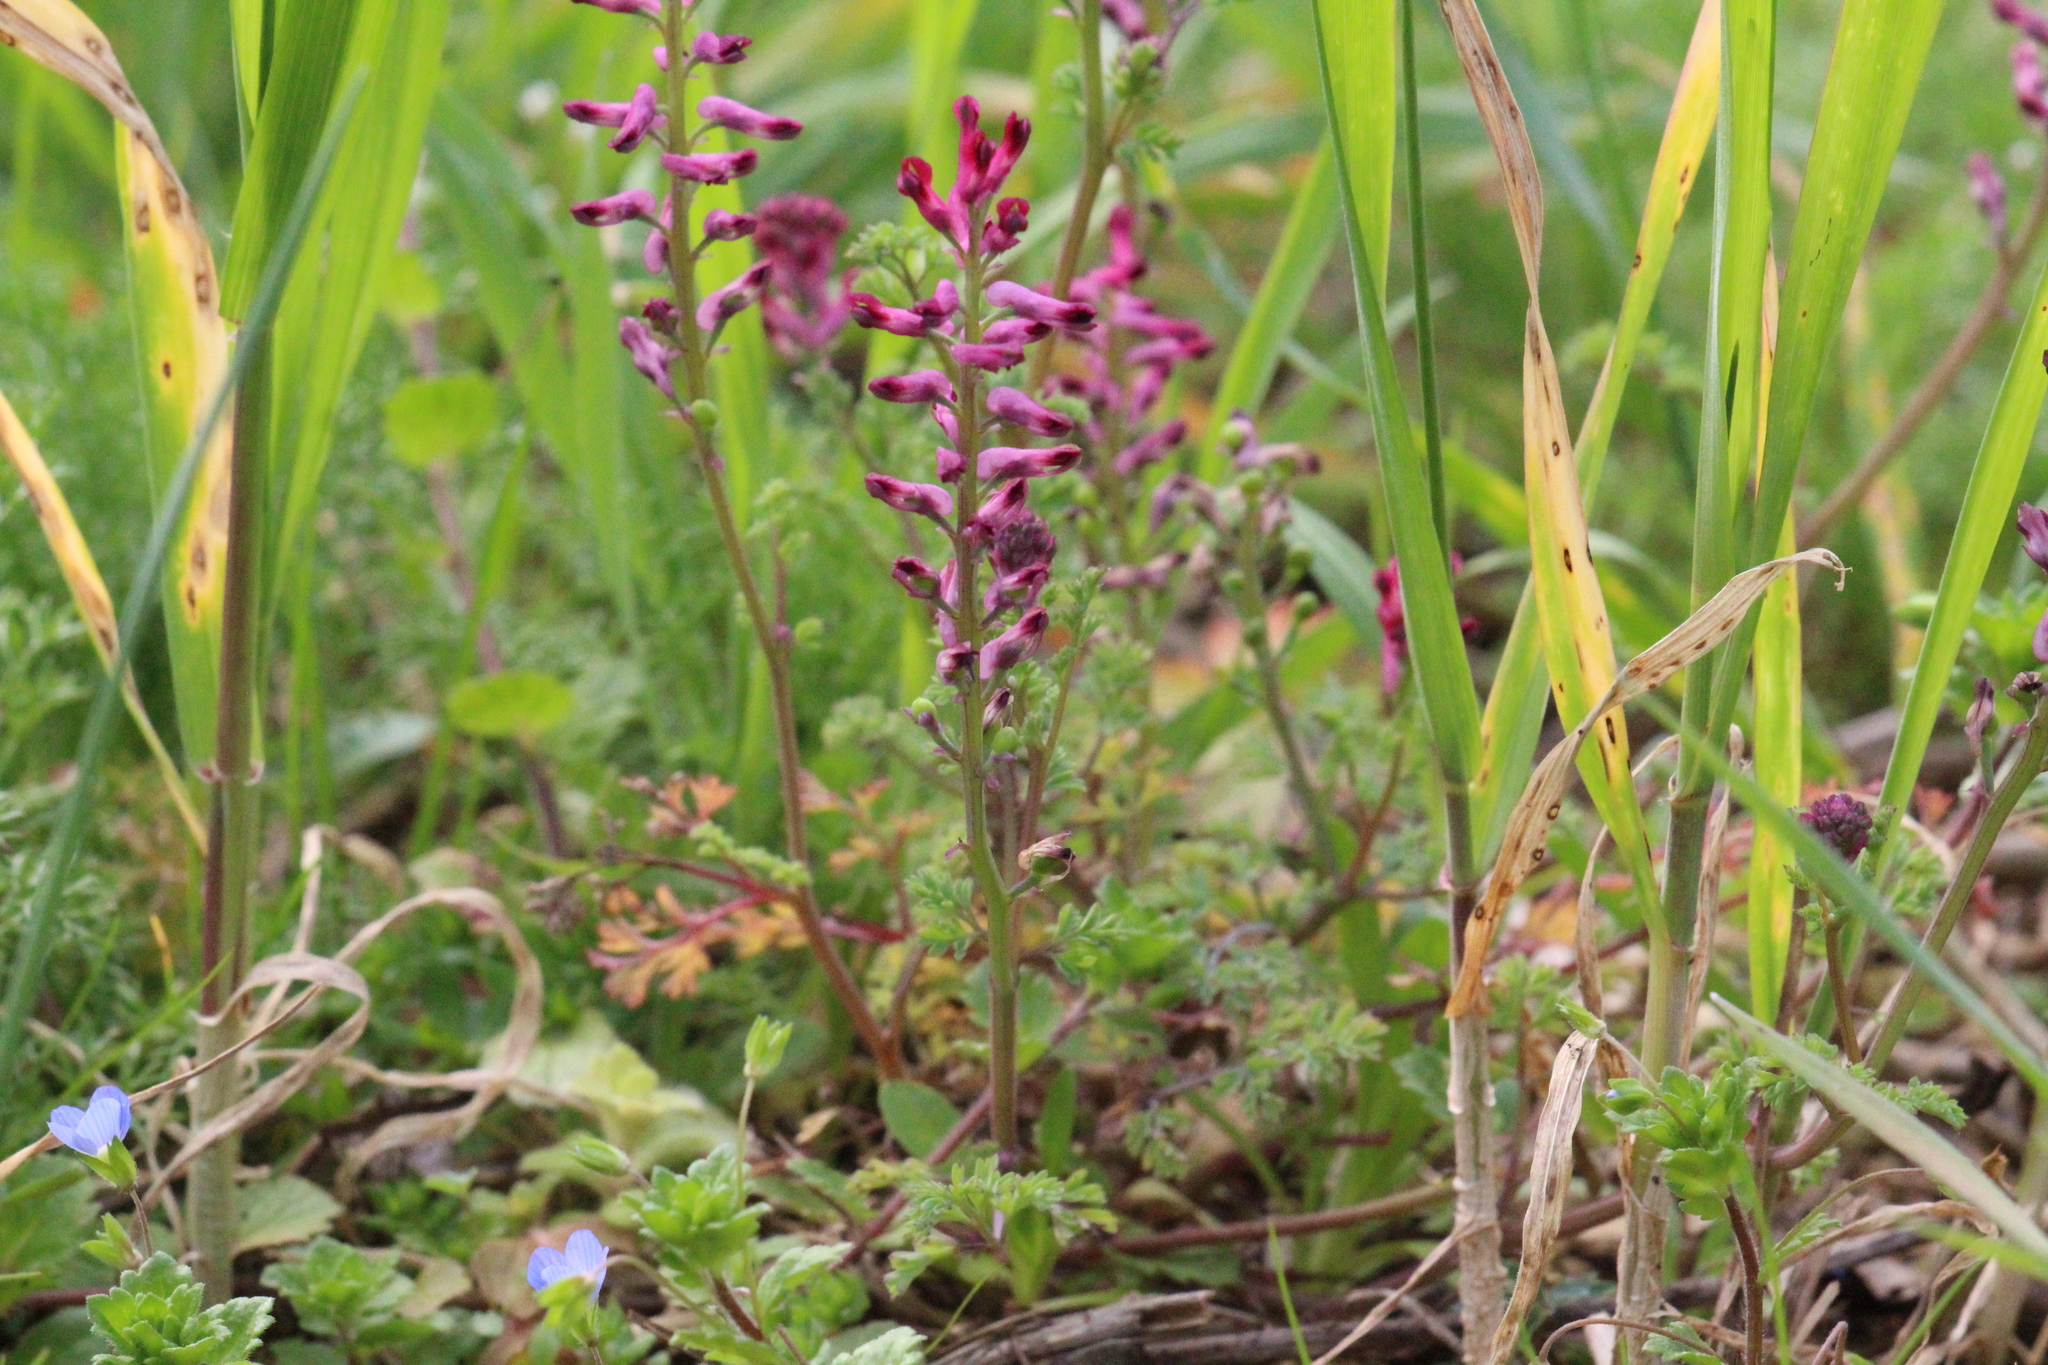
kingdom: Plantae
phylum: Tracheophyta
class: Magnoliopsida
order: Ranunculales
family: Papaveraceae
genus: Fumaria
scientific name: Fumaria officinalis
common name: Common fumitory
